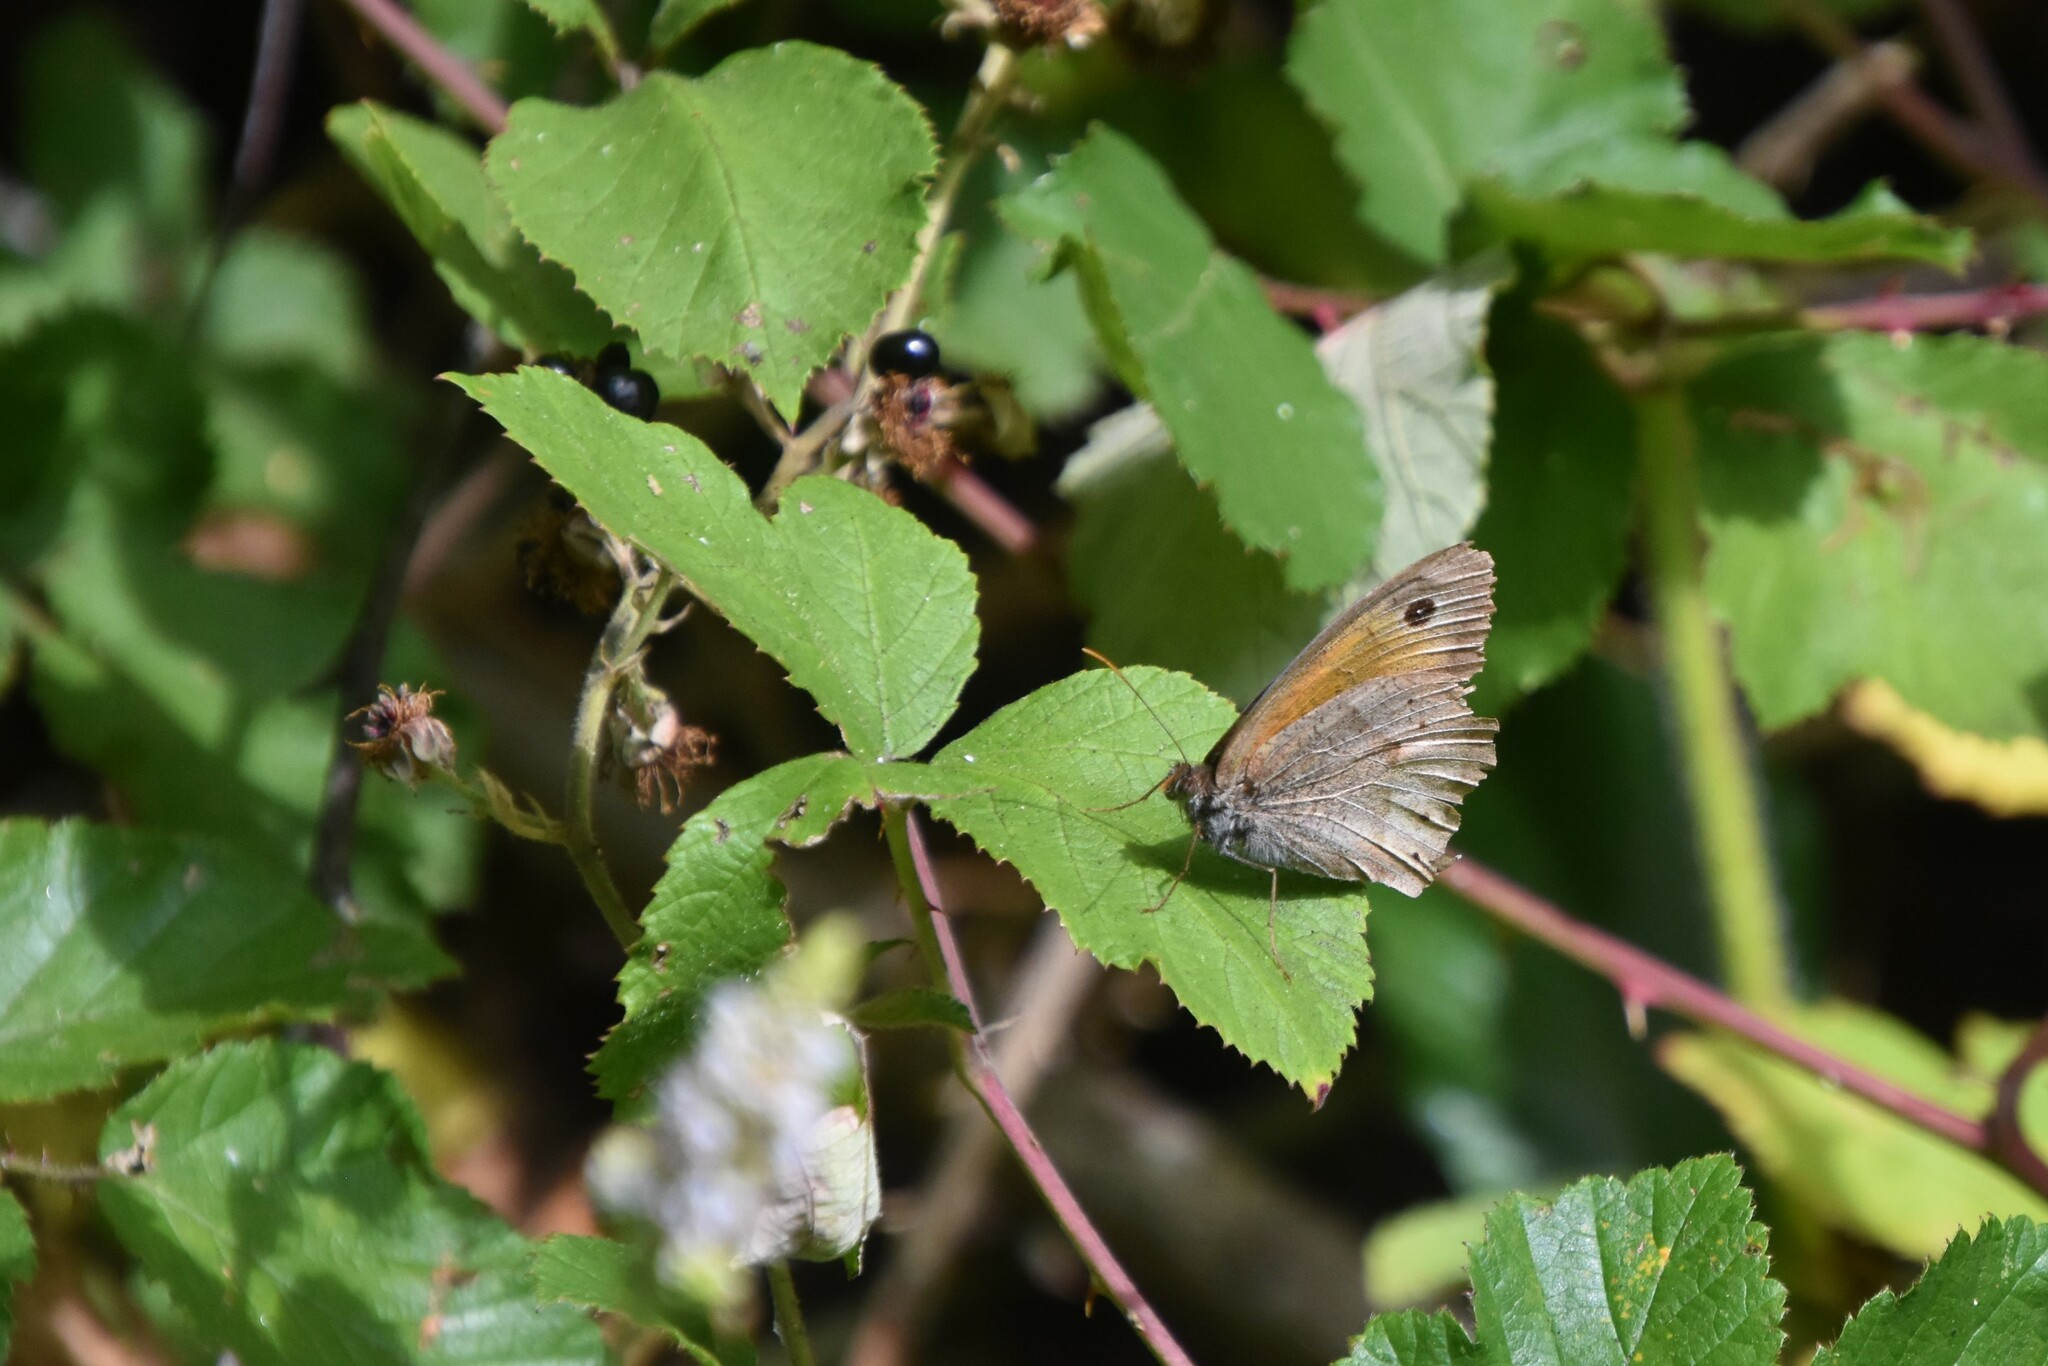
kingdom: Animalia
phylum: Arthropoda
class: Insecta
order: Lepidoptera
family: Nymphalidae
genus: Maniola
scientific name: Maniola jurtina
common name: Meadow brown
